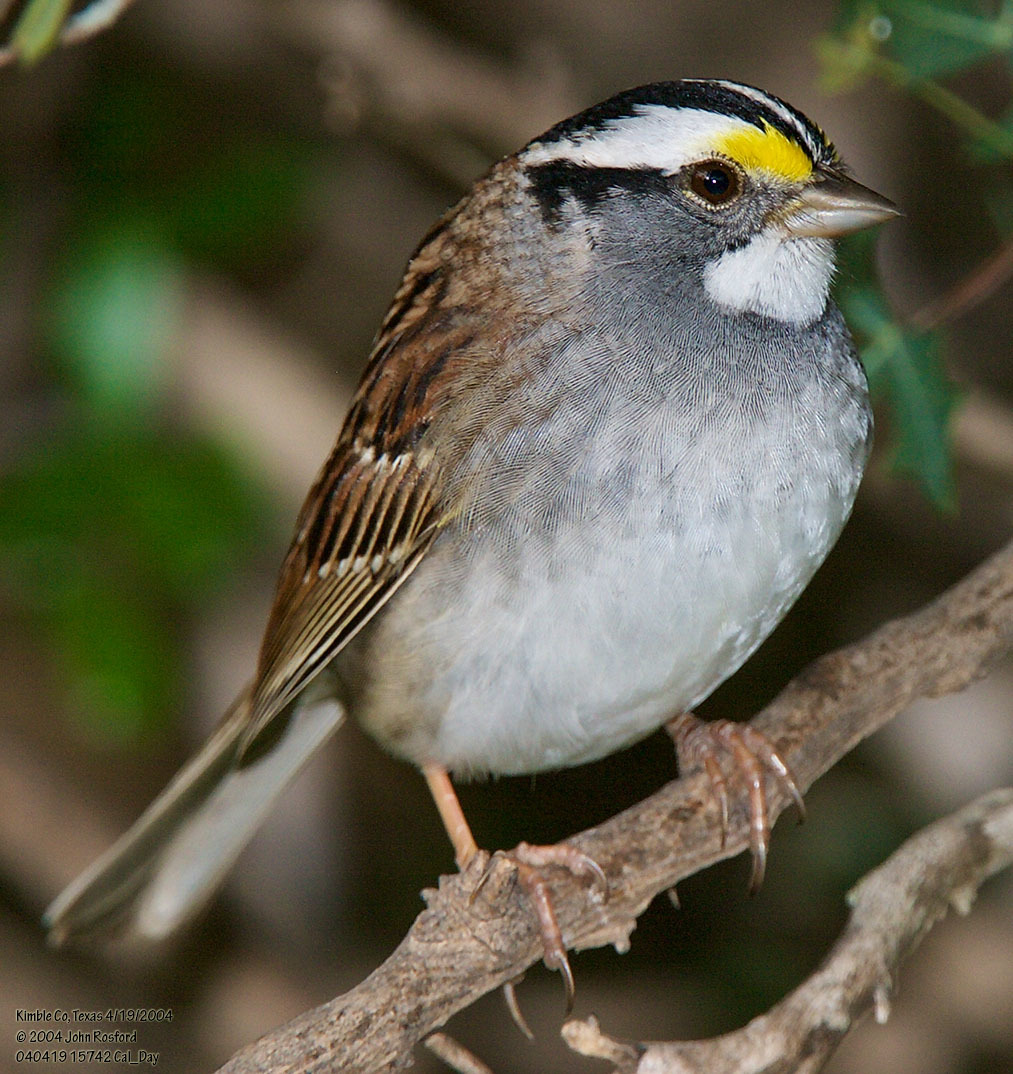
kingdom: Animalia
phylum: Chordata
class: Aves
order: Passeriformes
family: Passerellidae
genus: Zonotrichia
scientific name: Zonotrichia albicollis
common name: White-throated sparrow
